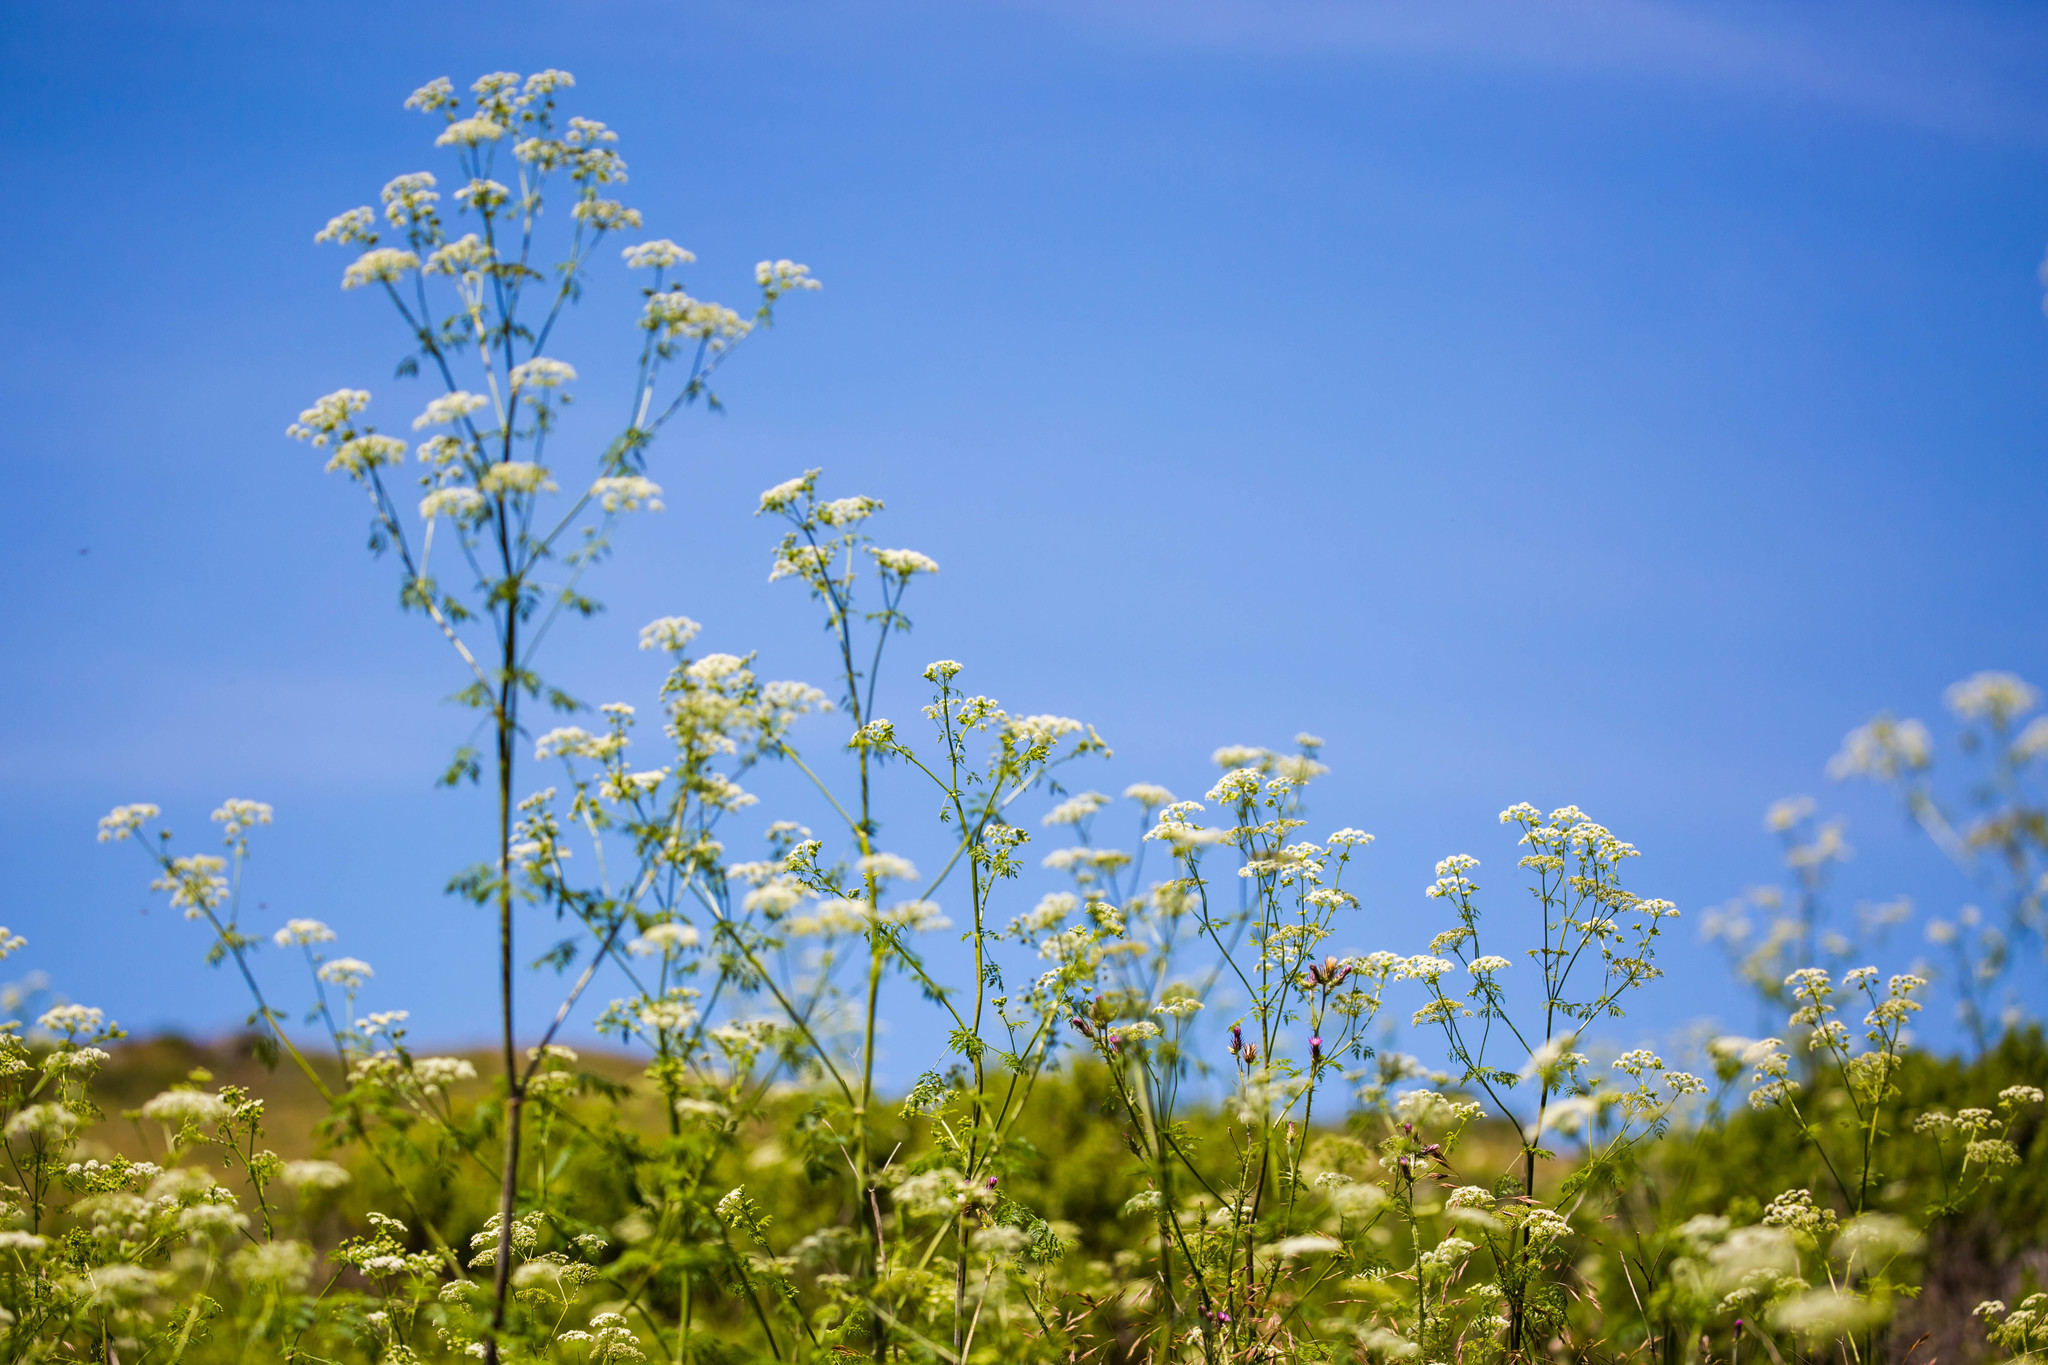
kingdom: Plantae
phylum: Tracheophyta
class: Magnoliopsida
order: Apiales
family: Apiaceae
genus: Conium
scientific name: Conium maculatum
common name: Hemlock
